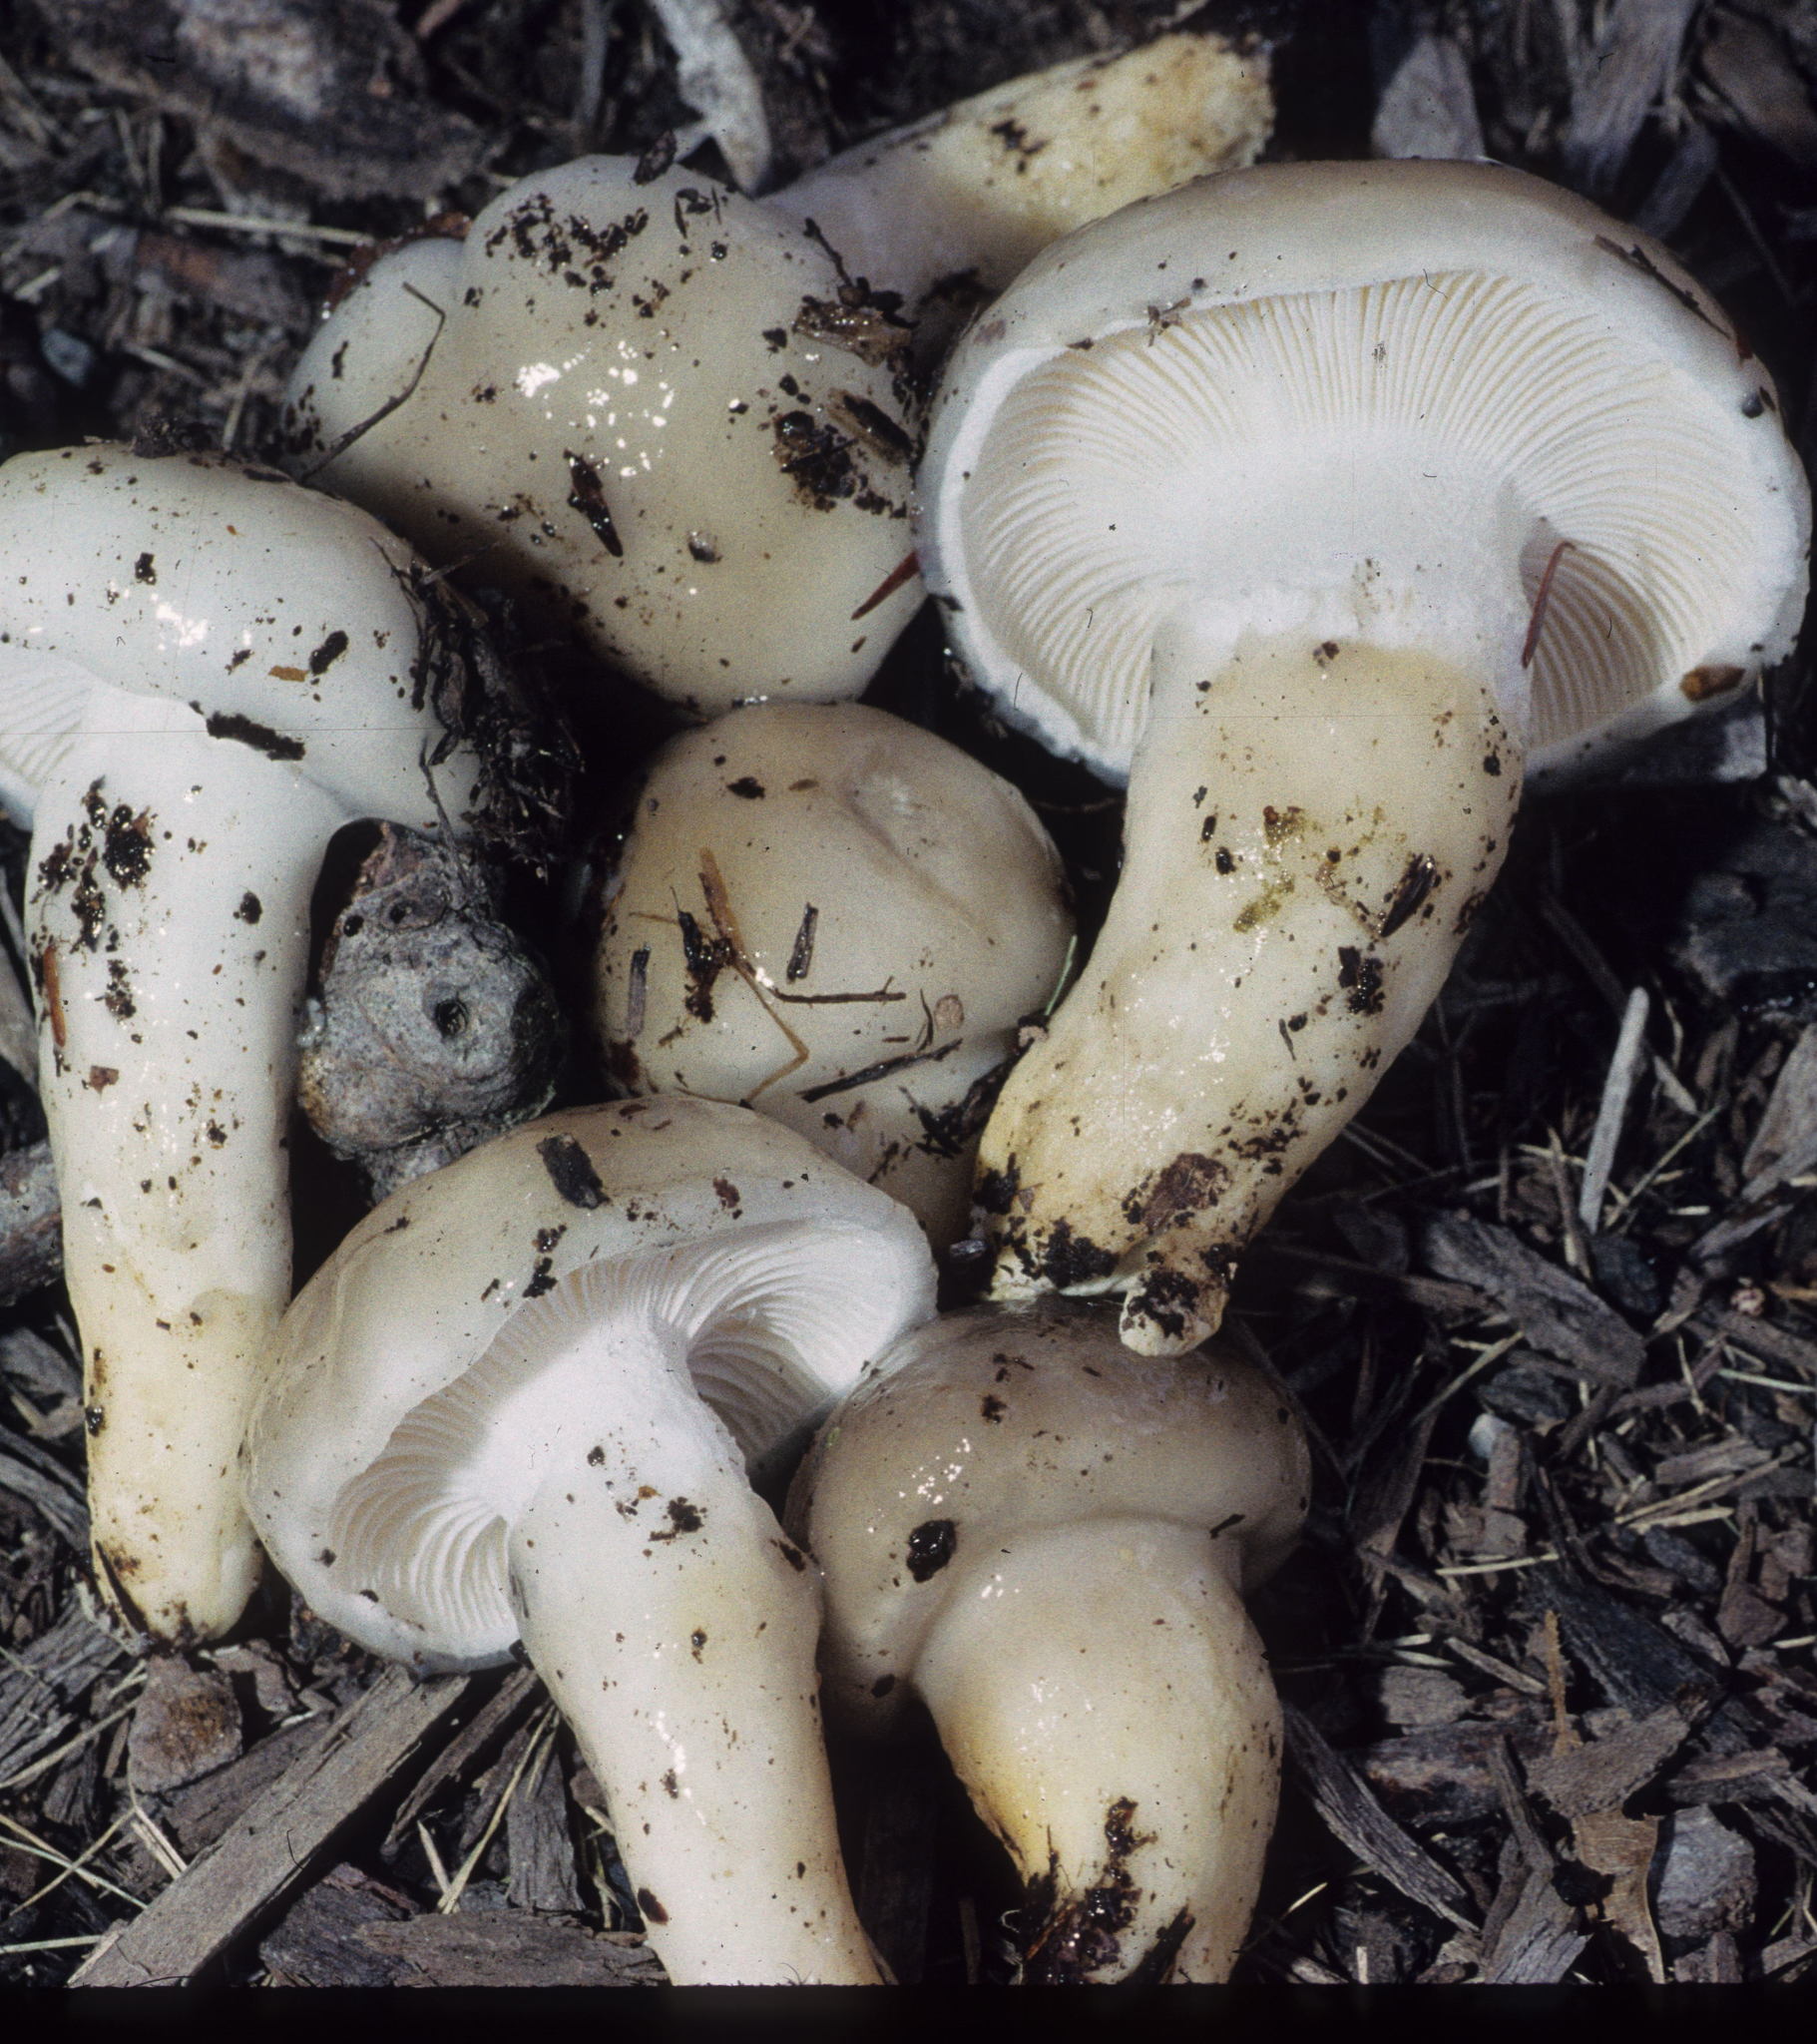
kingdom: Fungi
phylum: Basidiomycota
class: Agaricomycetes
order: Agaricales
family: Hygrophoraceae
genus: Hygrophorus
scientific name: Hygrophorus glutinosus
